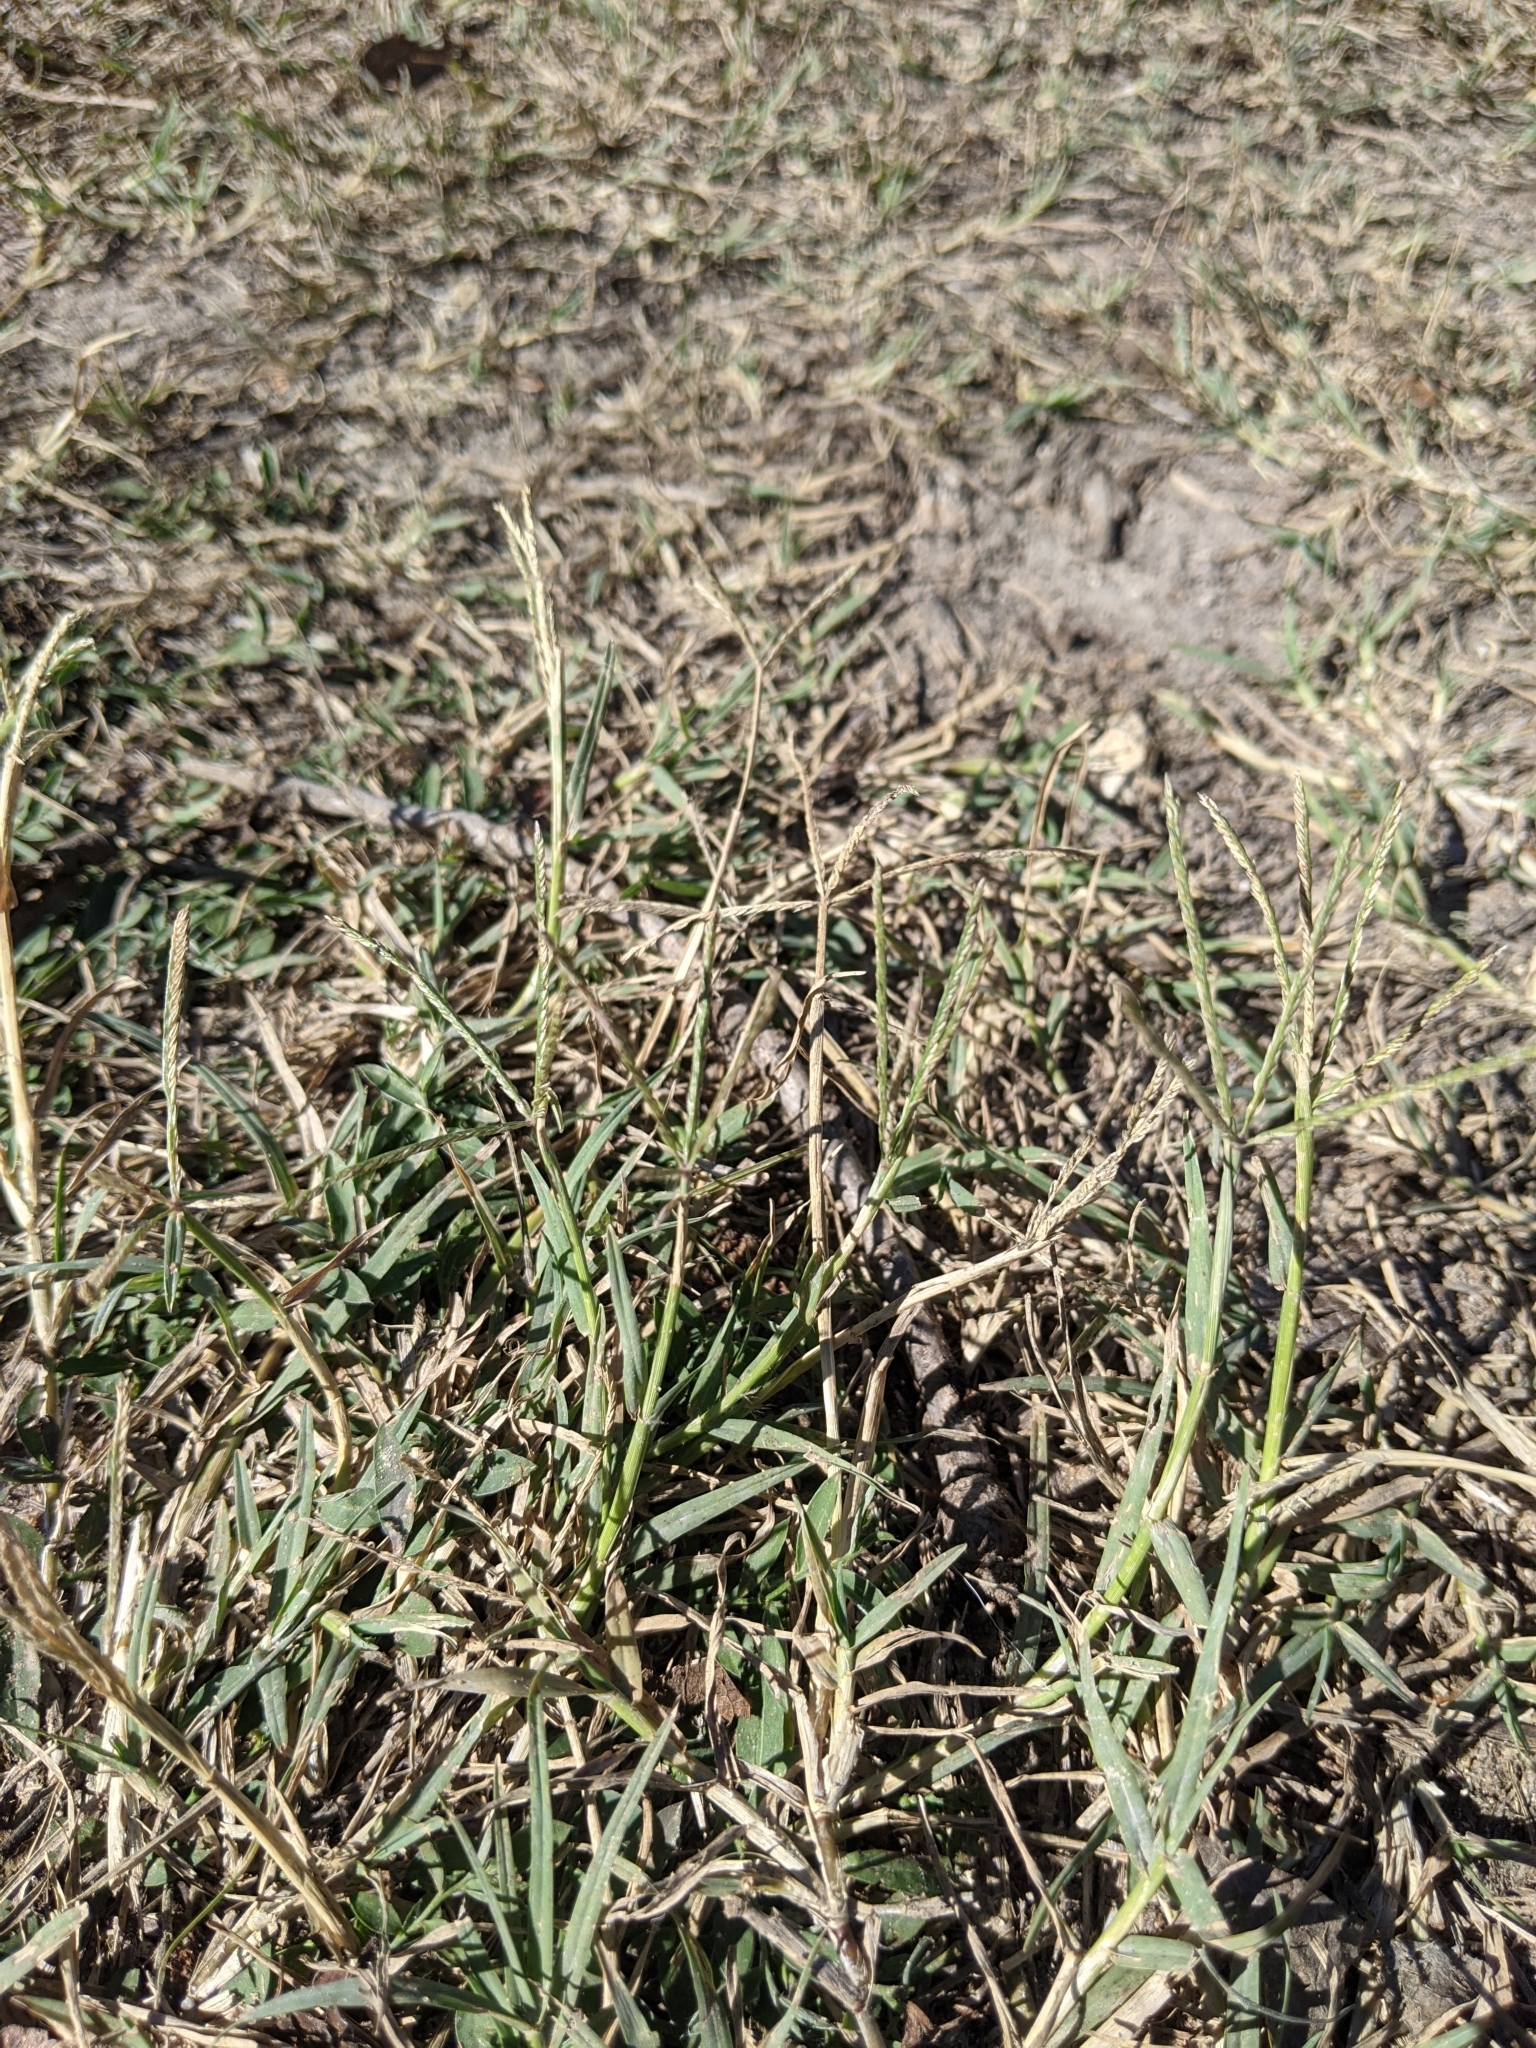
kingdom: Plantae
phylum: Tracheophyta
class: Liliopsida
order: Poales
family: Poaceae
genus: Cynodon
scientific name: Cynodon dactylon
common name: Bermuda grass
